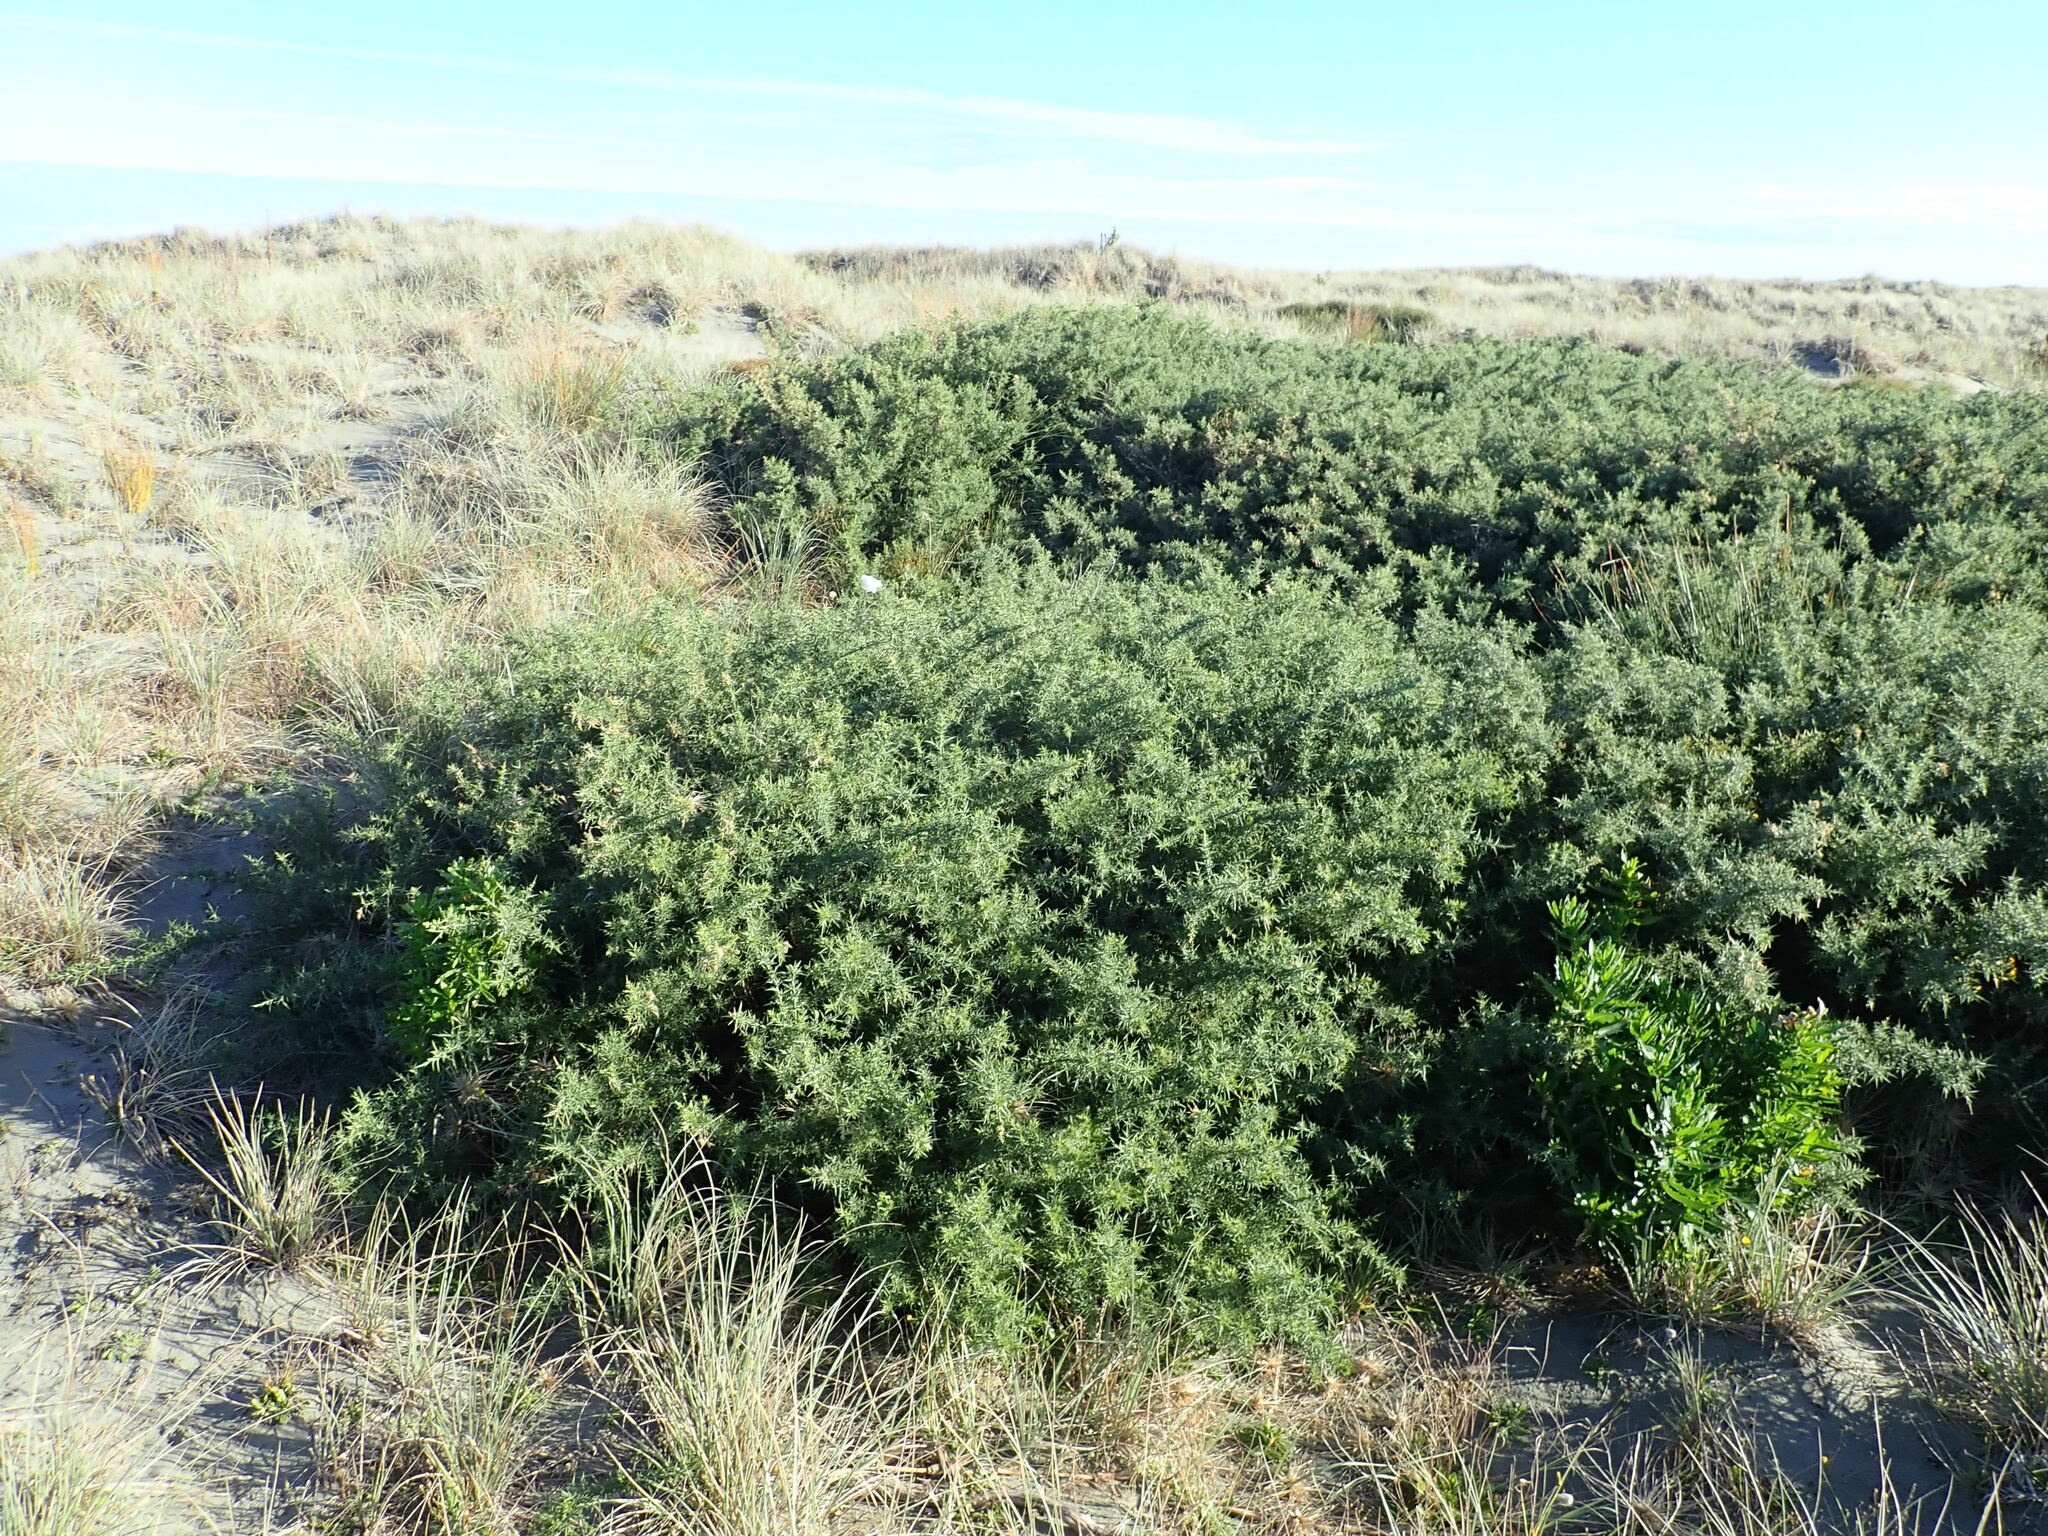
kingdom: Plantae
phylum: Tracheophyta
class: Magnoliopsida
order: Fabales
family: Fabaceae
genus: Ulex
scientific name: Ulex europaeus
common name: Common gorse
